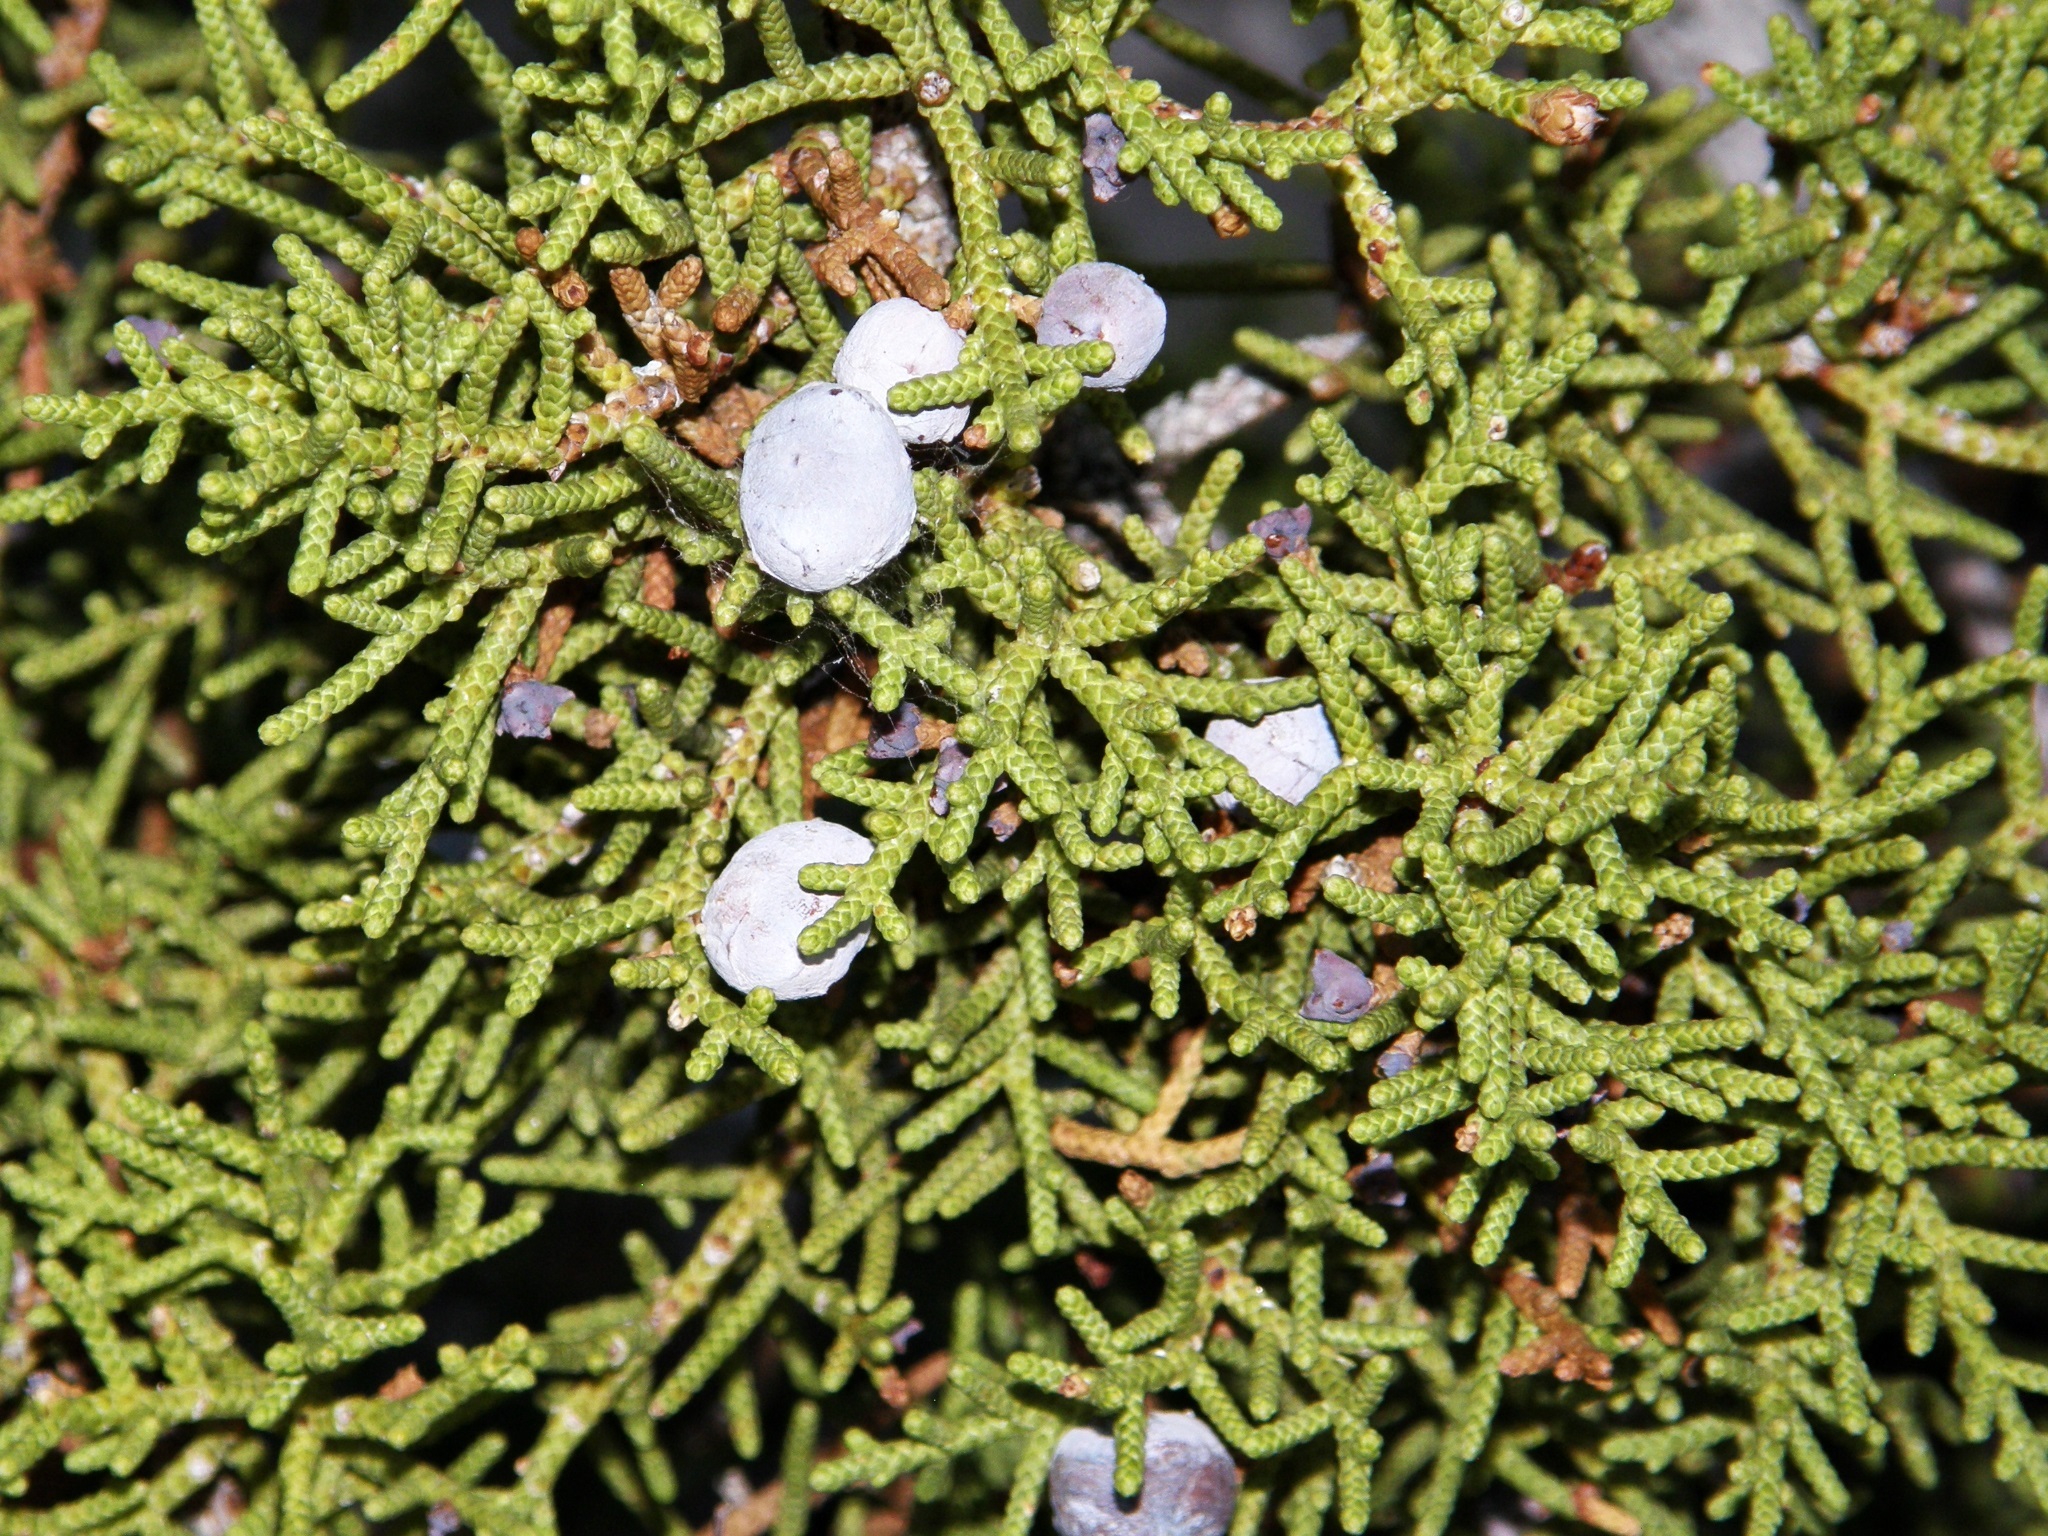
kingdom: Plantae
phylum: Tracheophyta
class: Pinopsida
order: Pinales
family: Cupressaceae
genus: Juniperus
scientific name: Juniperus californica
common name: California juniper
